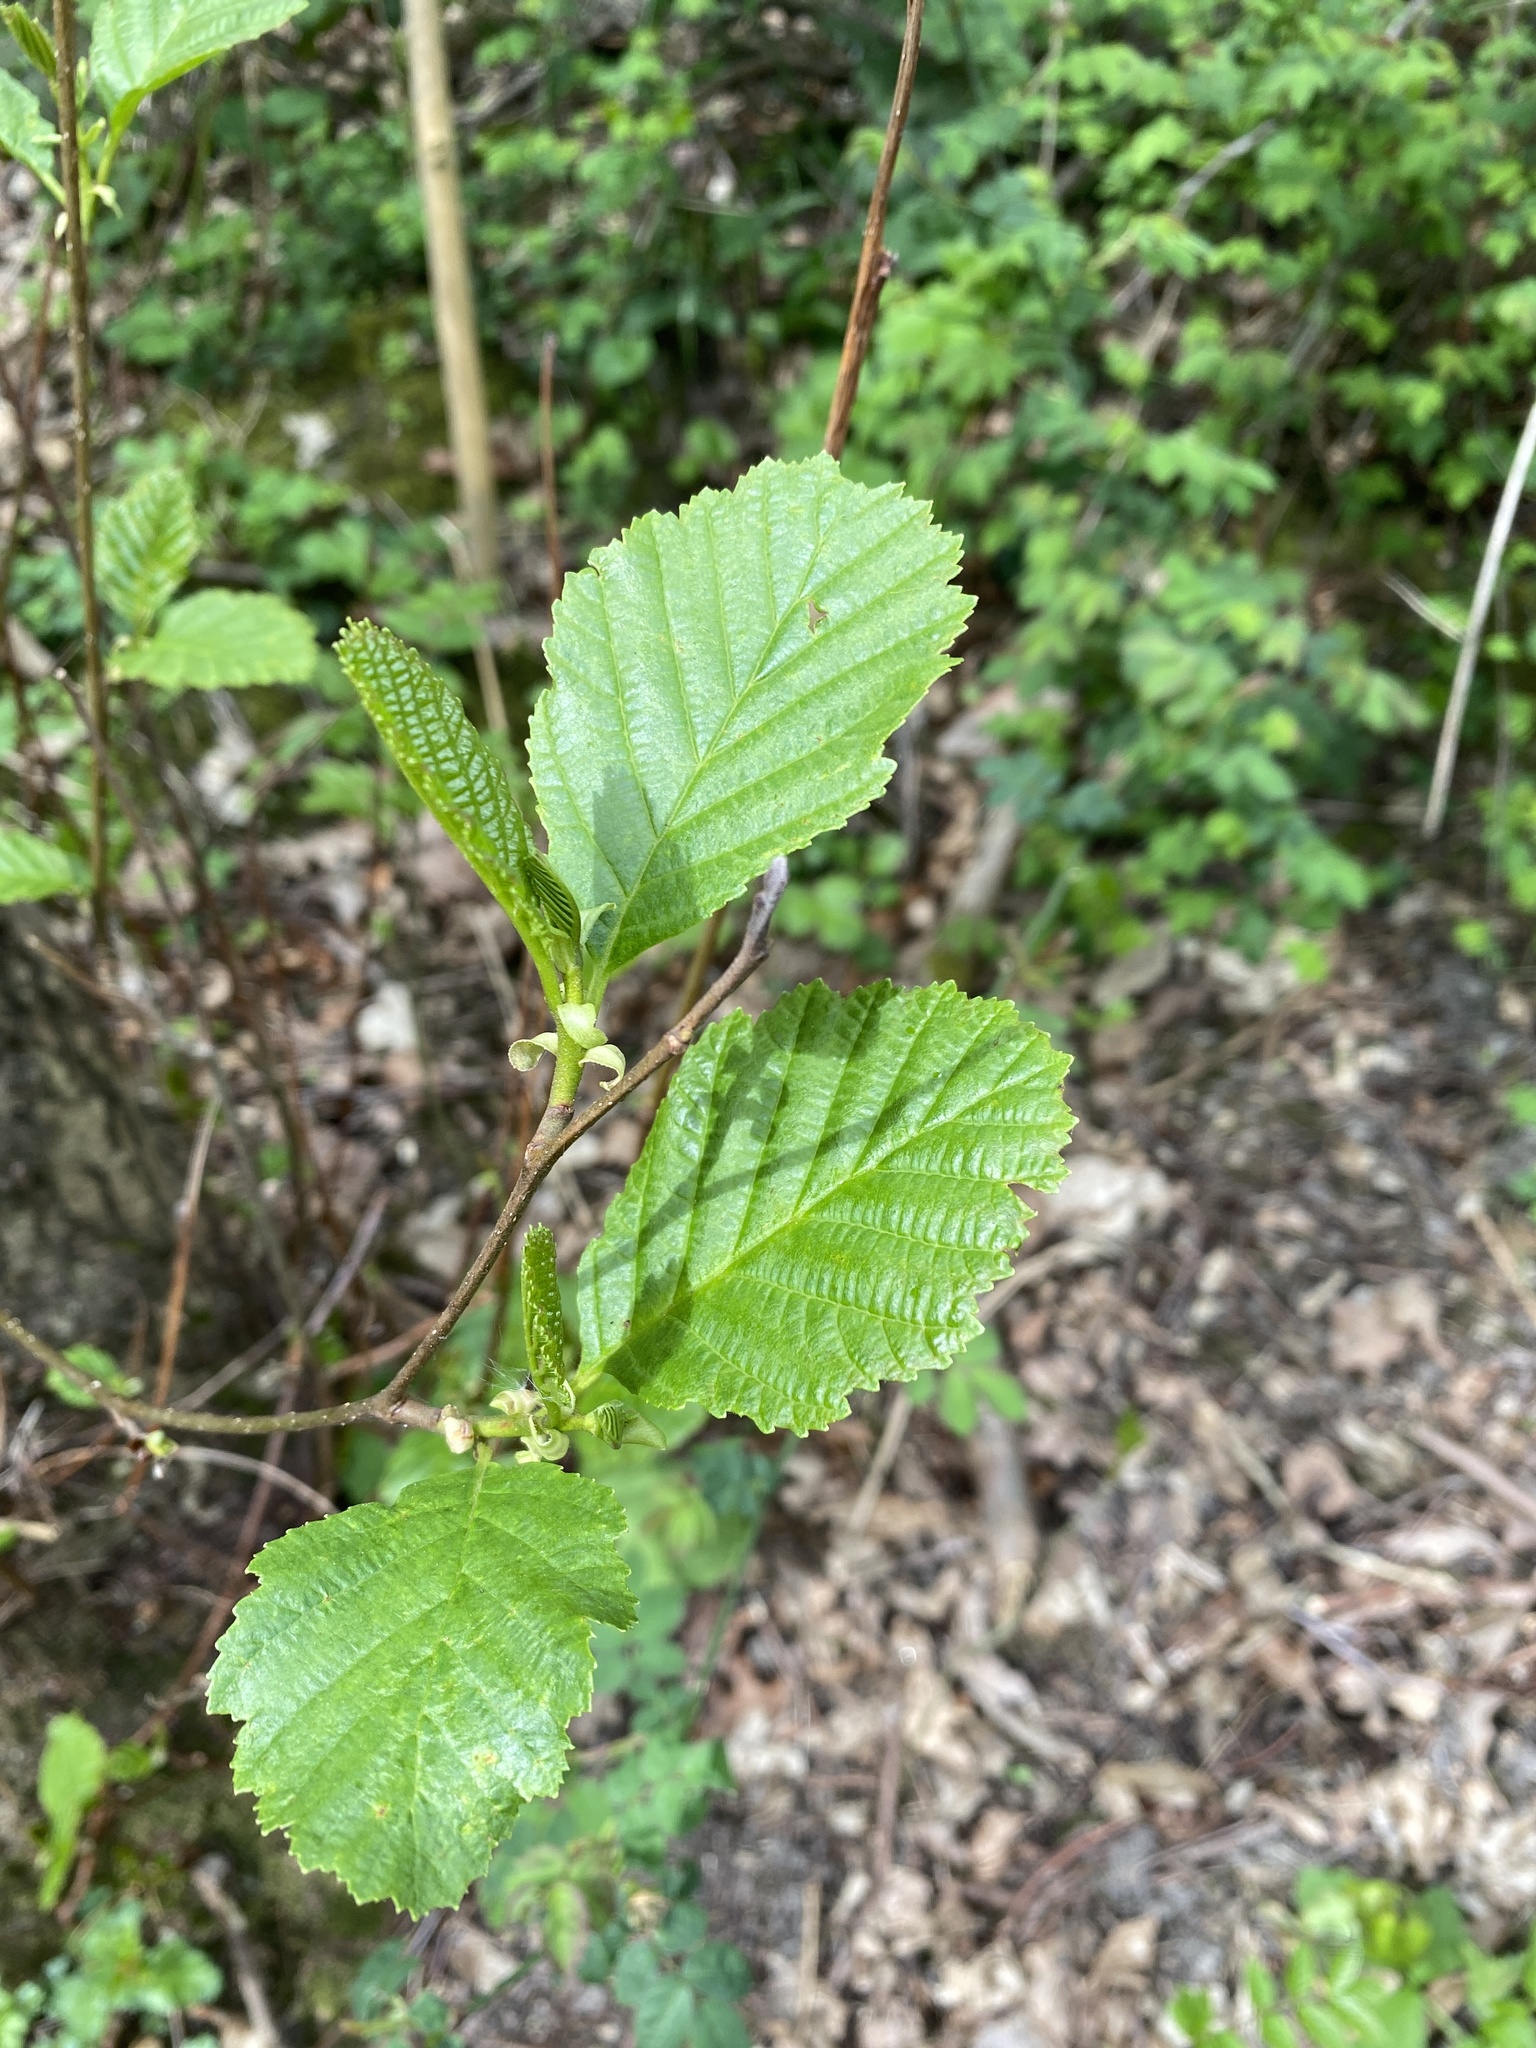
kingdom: Plantae
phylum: Tracheophyta
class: Magnoliopsida
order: Fagales
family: Betulaceae
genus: Alnus
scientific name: Alnus glutinosa
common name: Black alder
